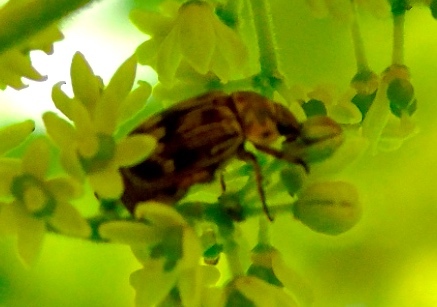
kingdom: Animalia
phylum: Arthropoda
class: Insecta
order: Coleoptera
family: Scarabaeidae
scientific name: Scarabaeidae
